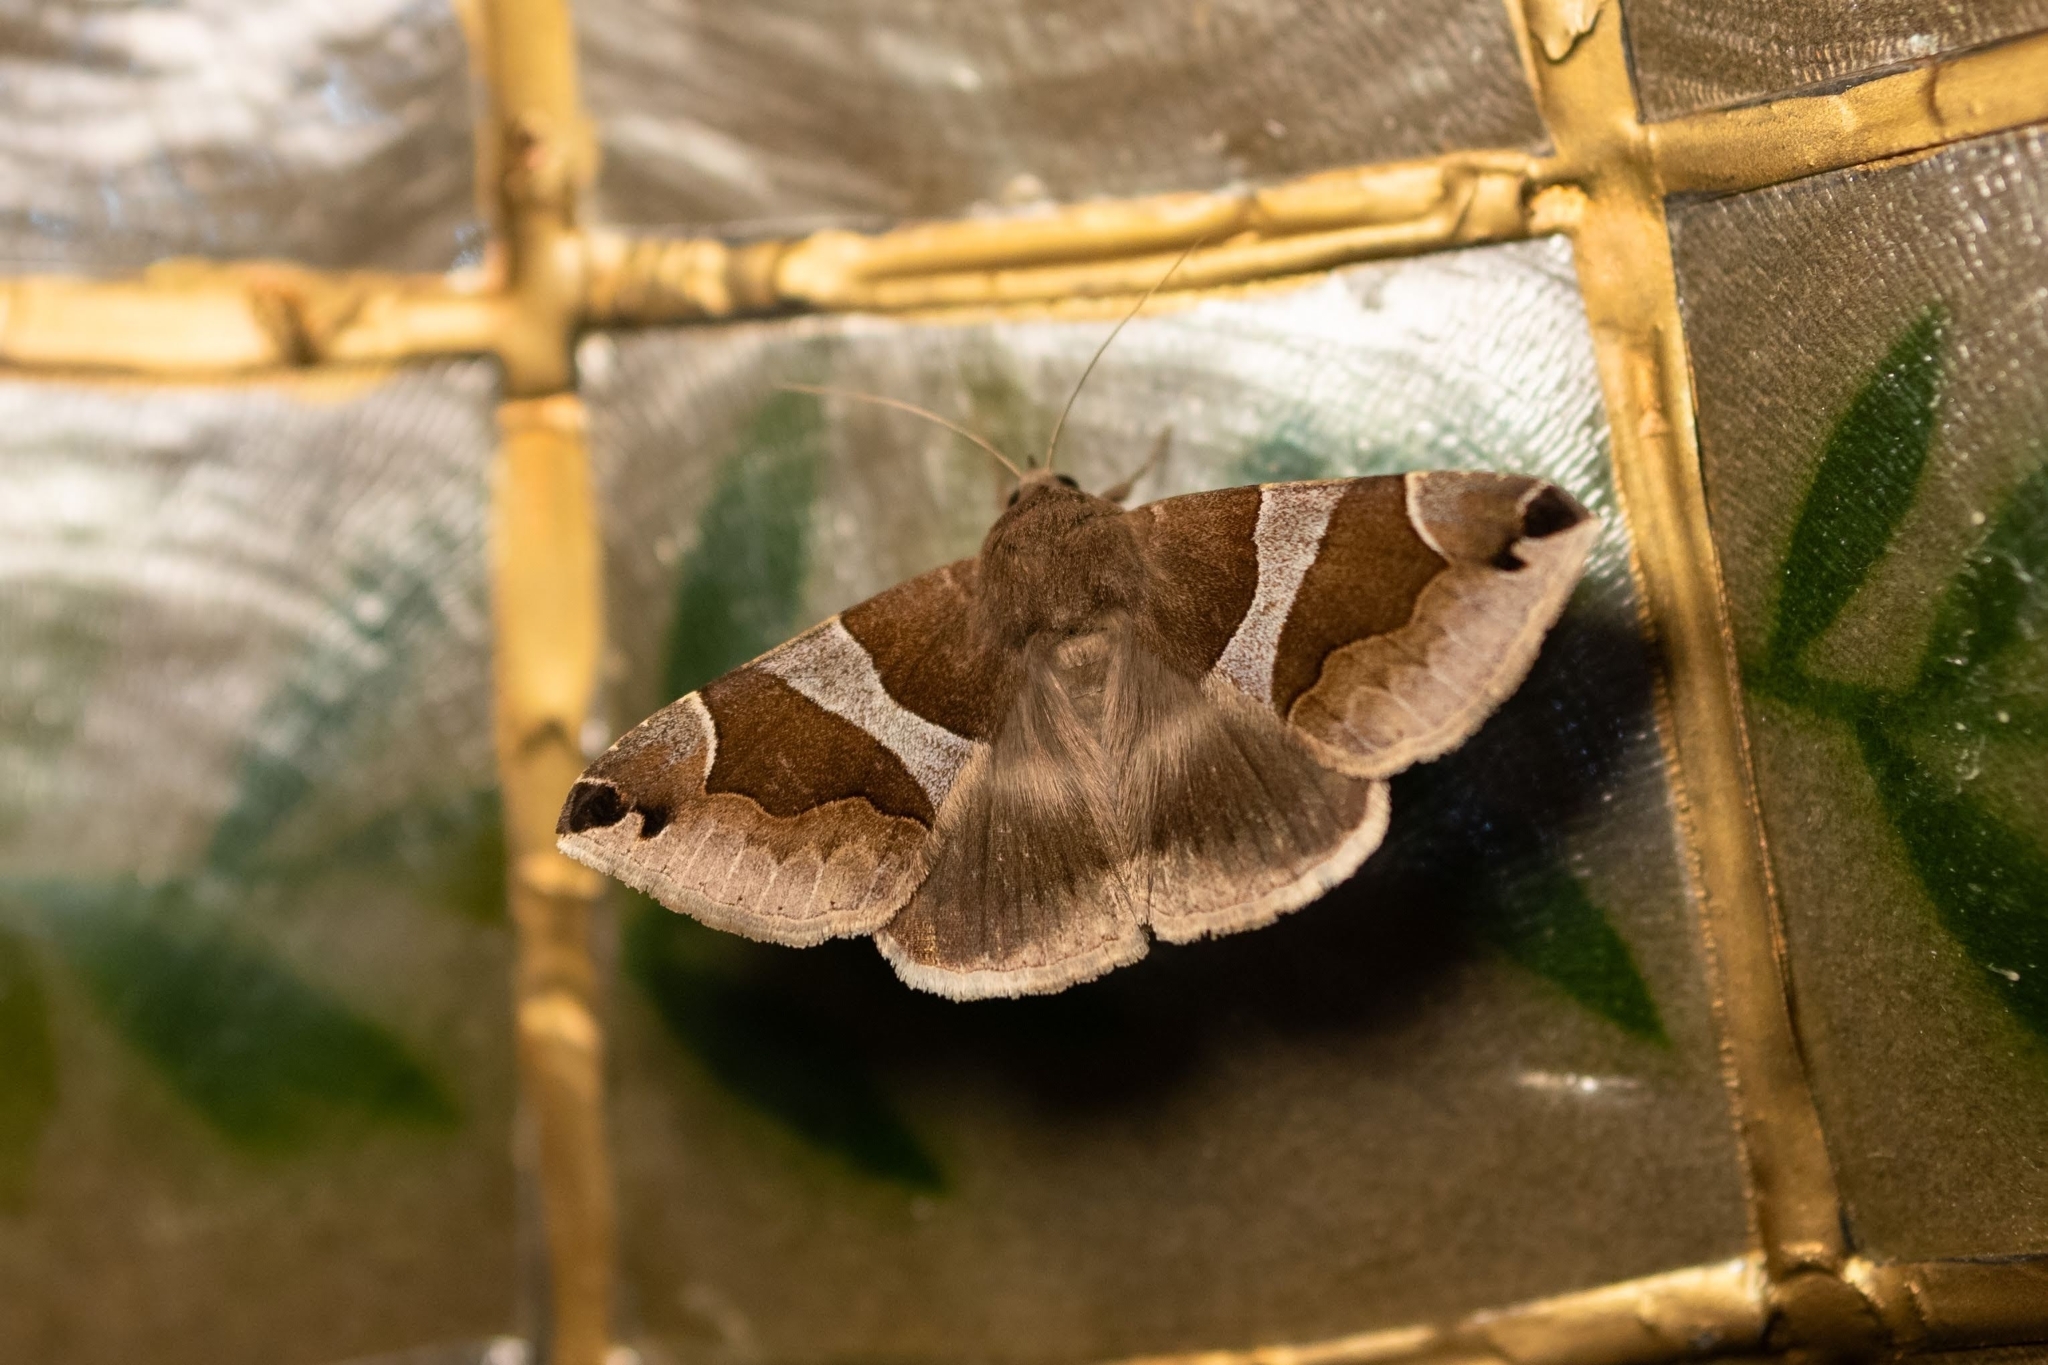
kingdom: Animalia
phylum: Arthropoda
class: Insecta
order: Lepidoptera
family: Erebidae
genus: Dysgonia
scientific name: Dysgonia algira
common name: Passenger
